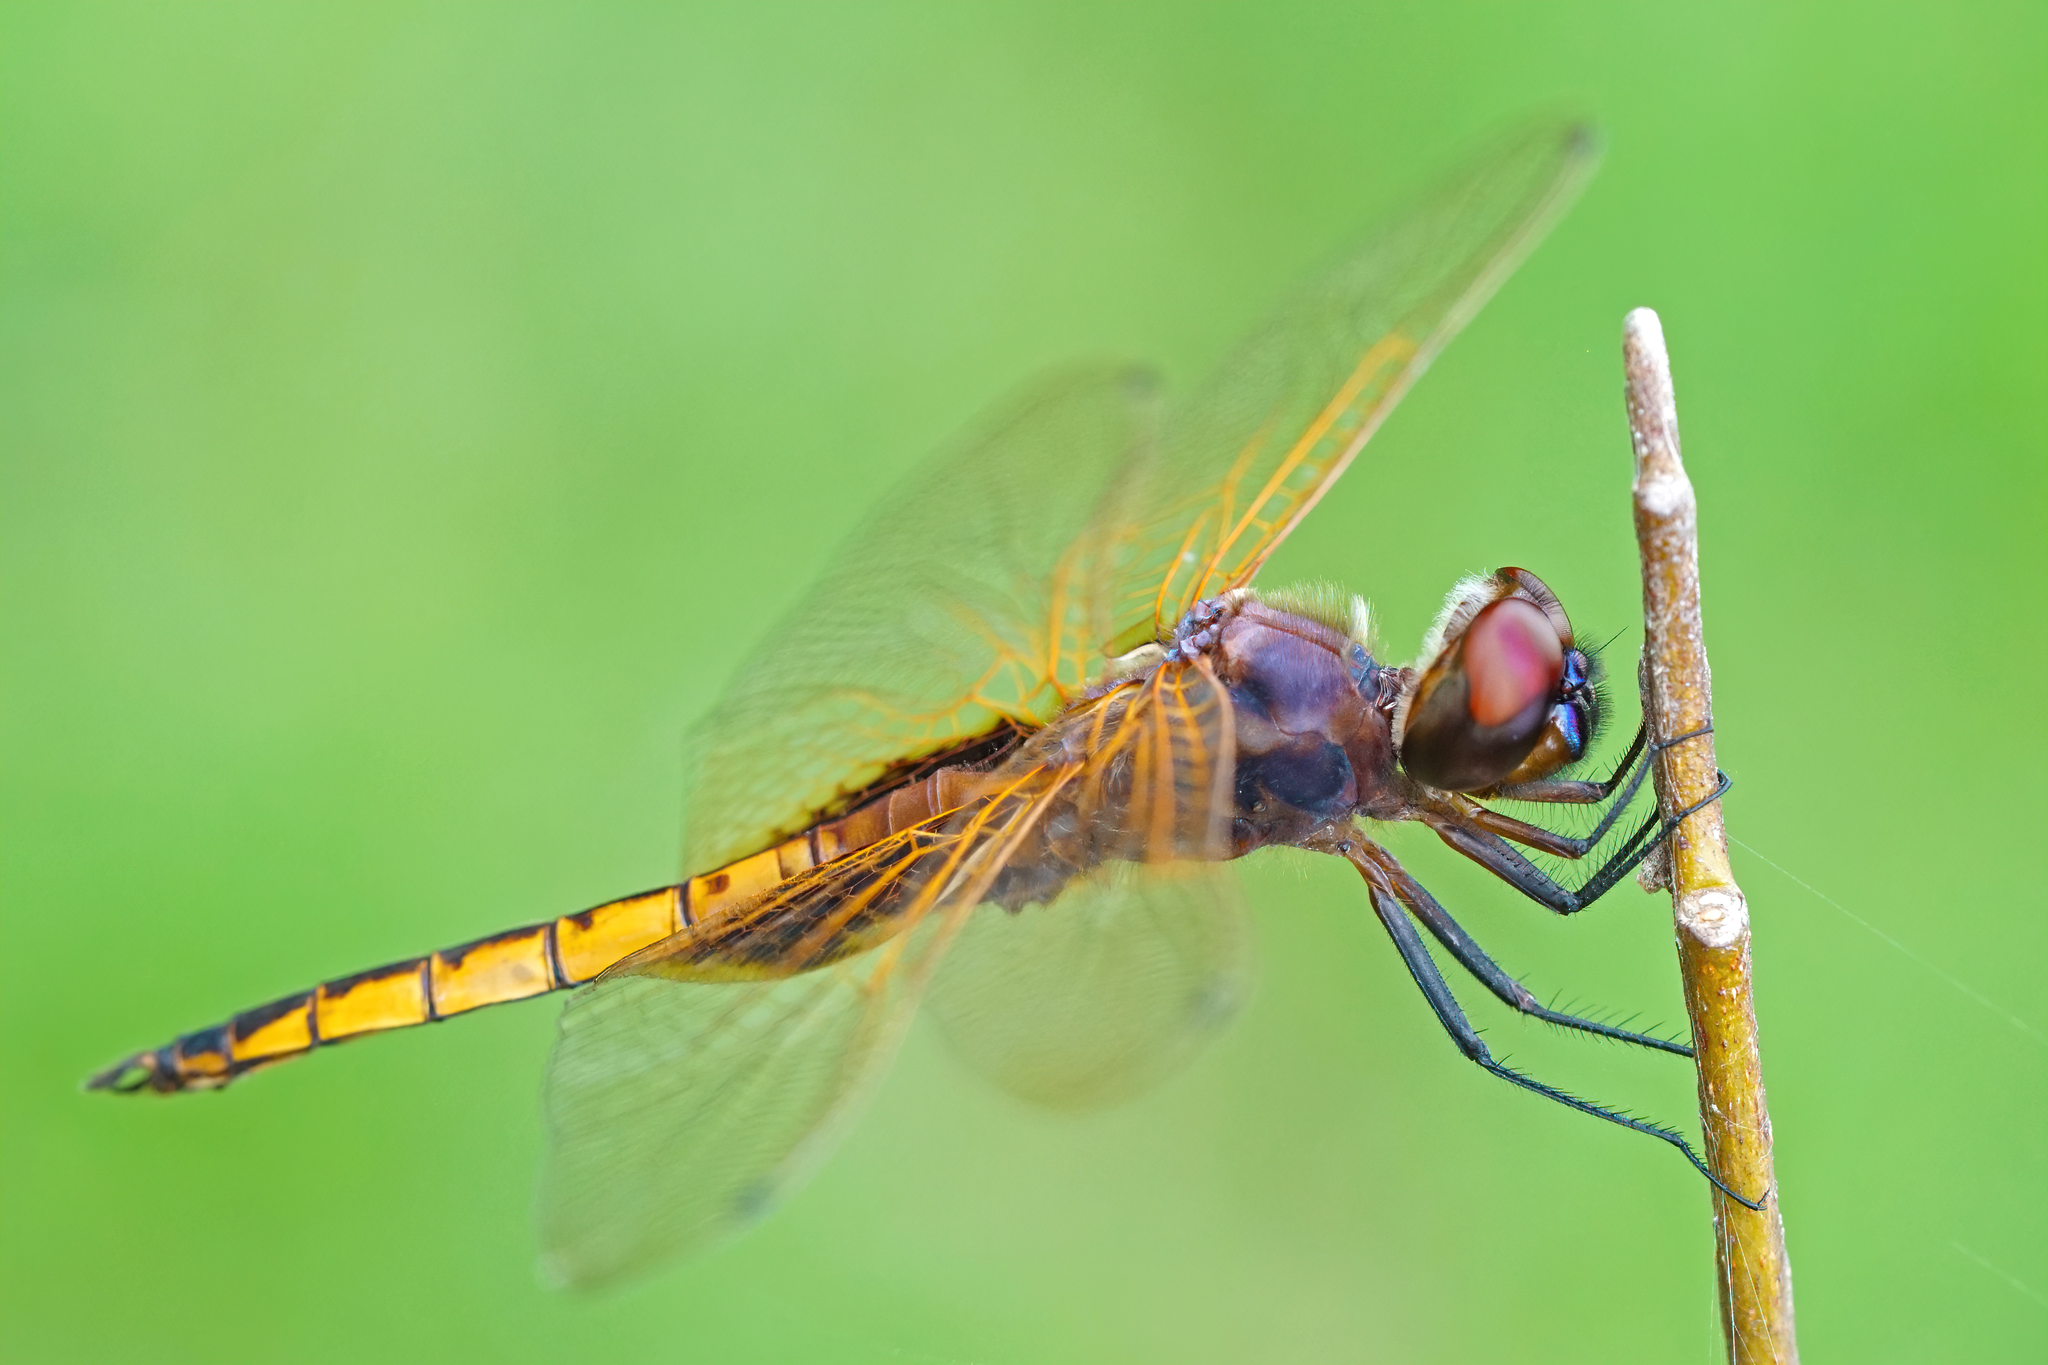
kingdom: Animalia
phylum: Arthropoda
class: Insecta
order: Odonata
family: Libellulidae
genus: Miathyria
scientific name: Miathyria marcella
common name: Hyacinth glider
